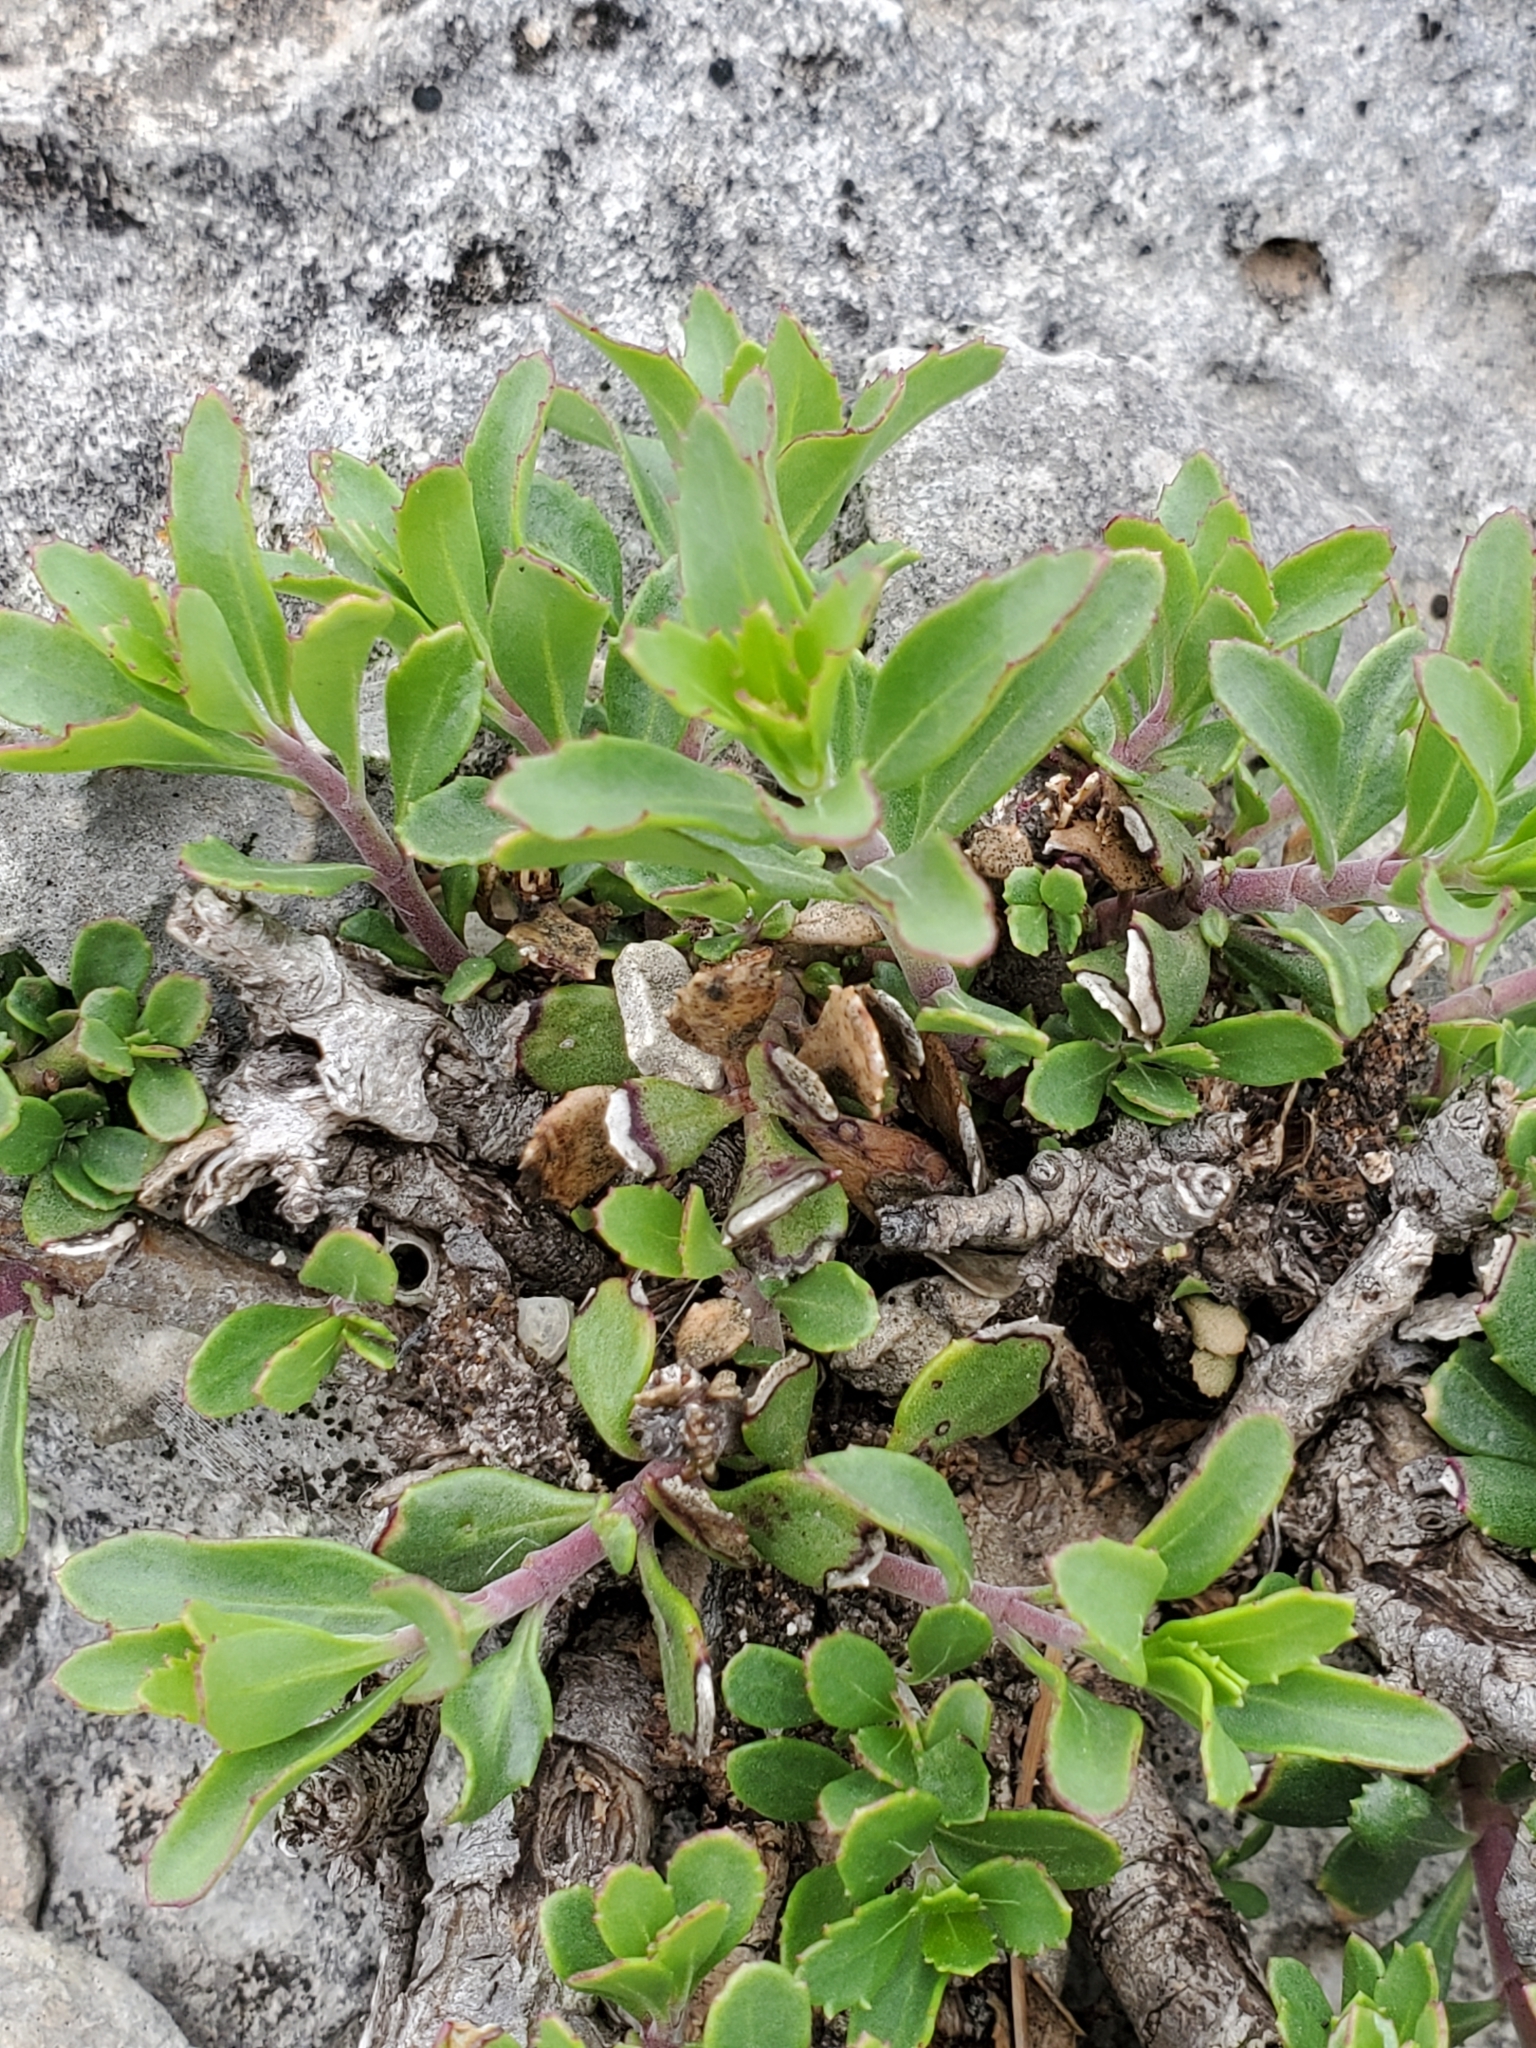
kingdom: Plantae
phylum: Tracheophyta
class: Magnoliopsida
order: Lamiales
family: Plantaginaceae
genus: Penstemon
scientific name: Penstemon baccharifolius
